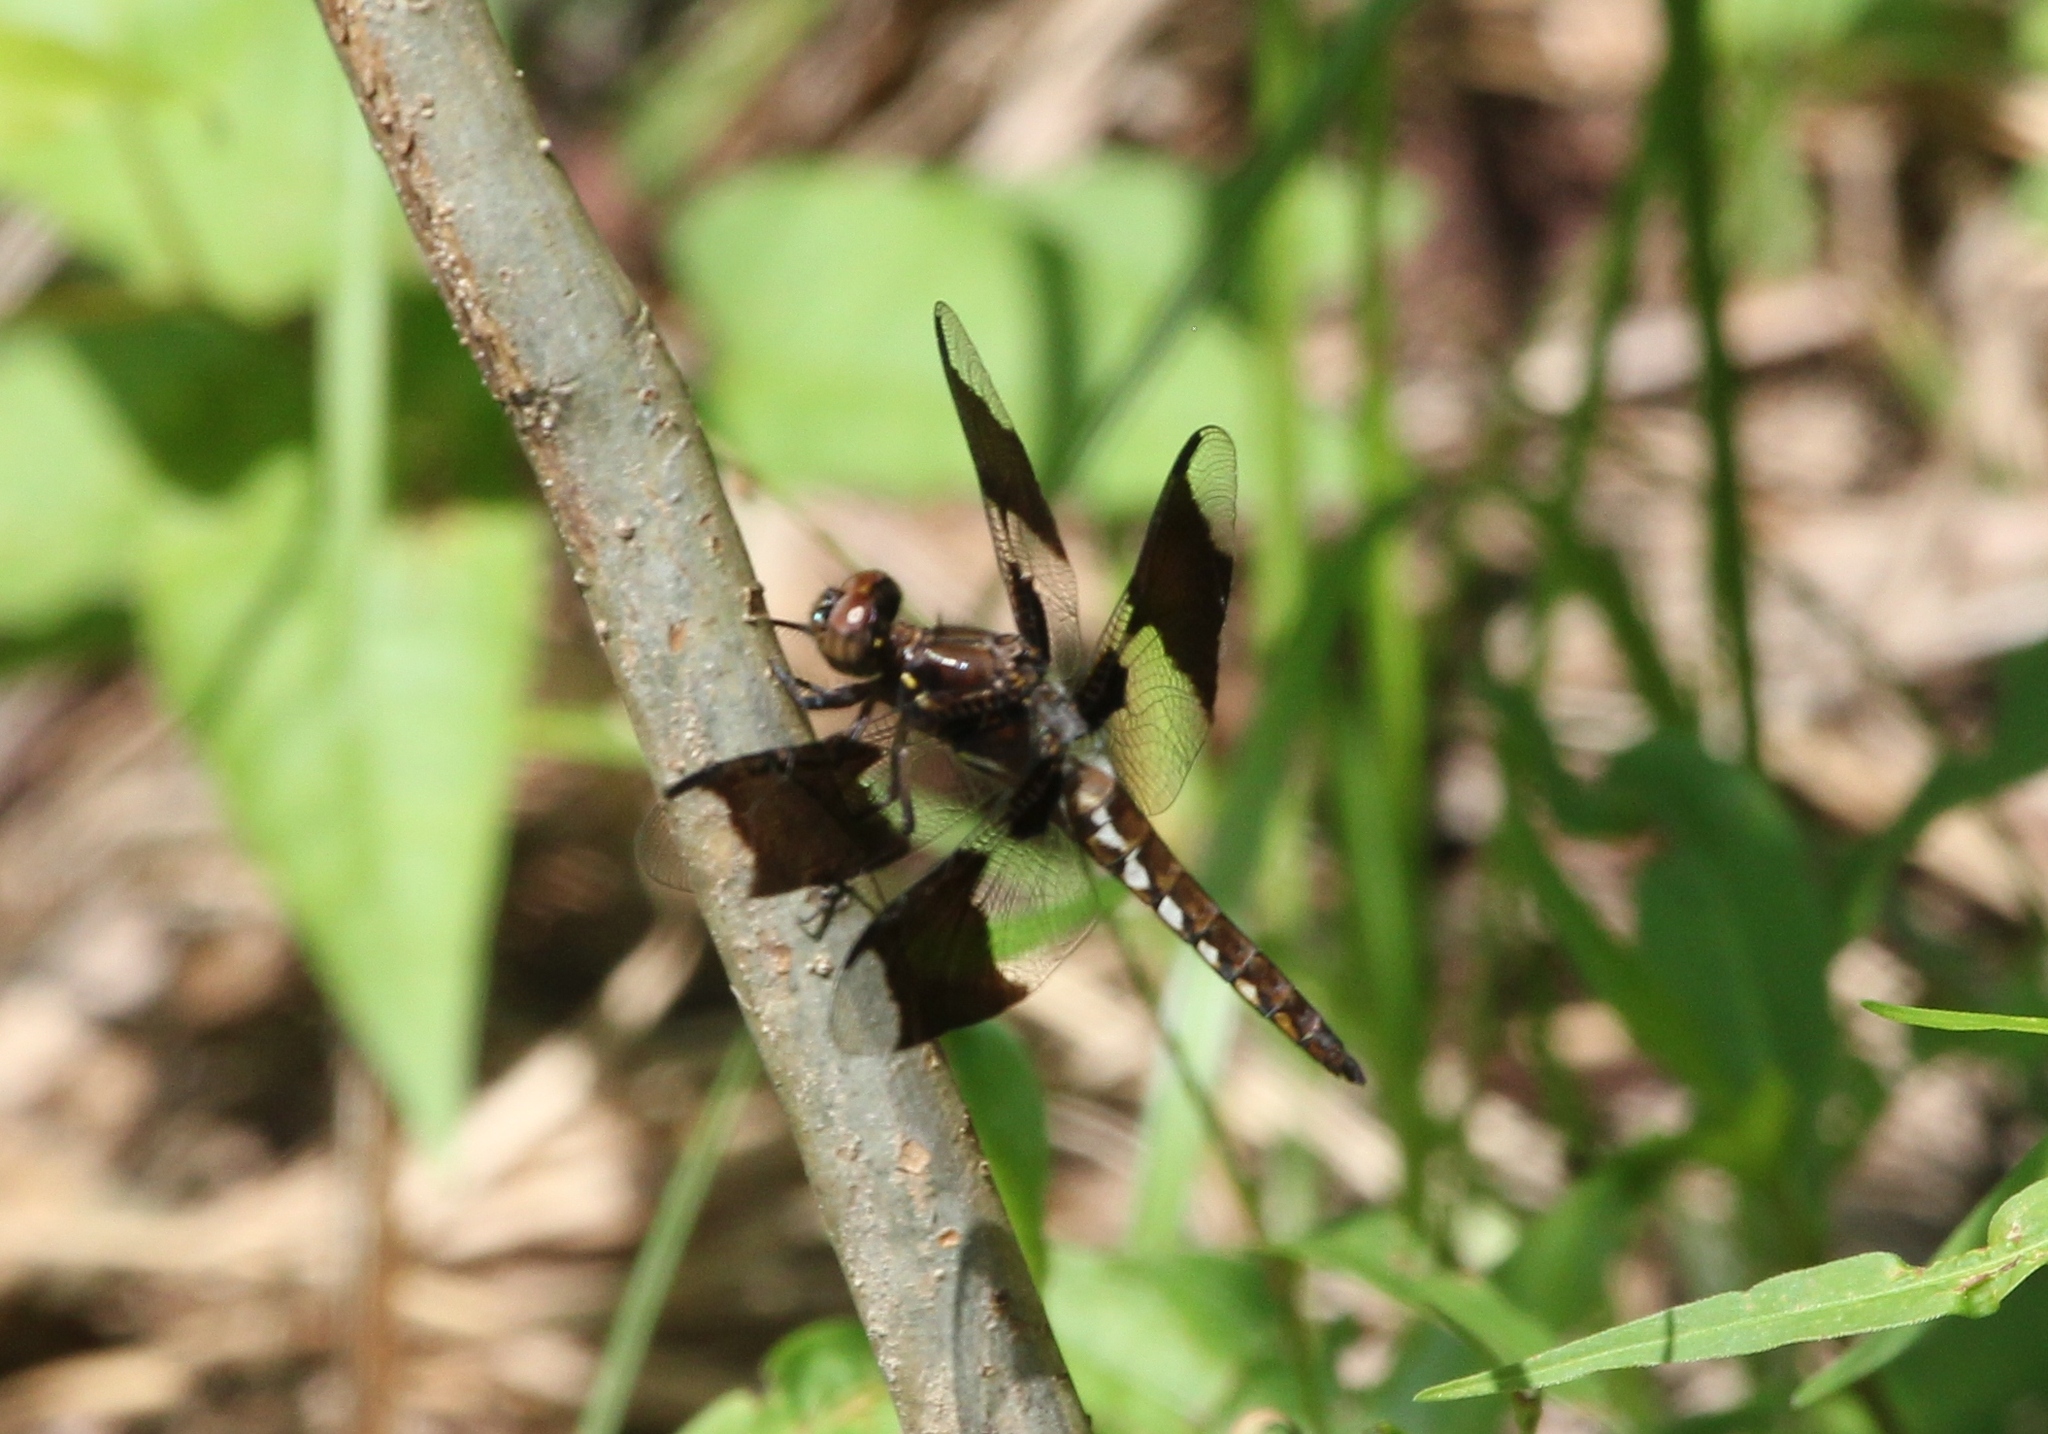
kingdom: Animalia
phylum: Arthropoda
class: Insecta
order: Odonata
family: Libellulidae
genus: Plathemis
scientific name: Plathemis lydia
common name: Common whitetail
